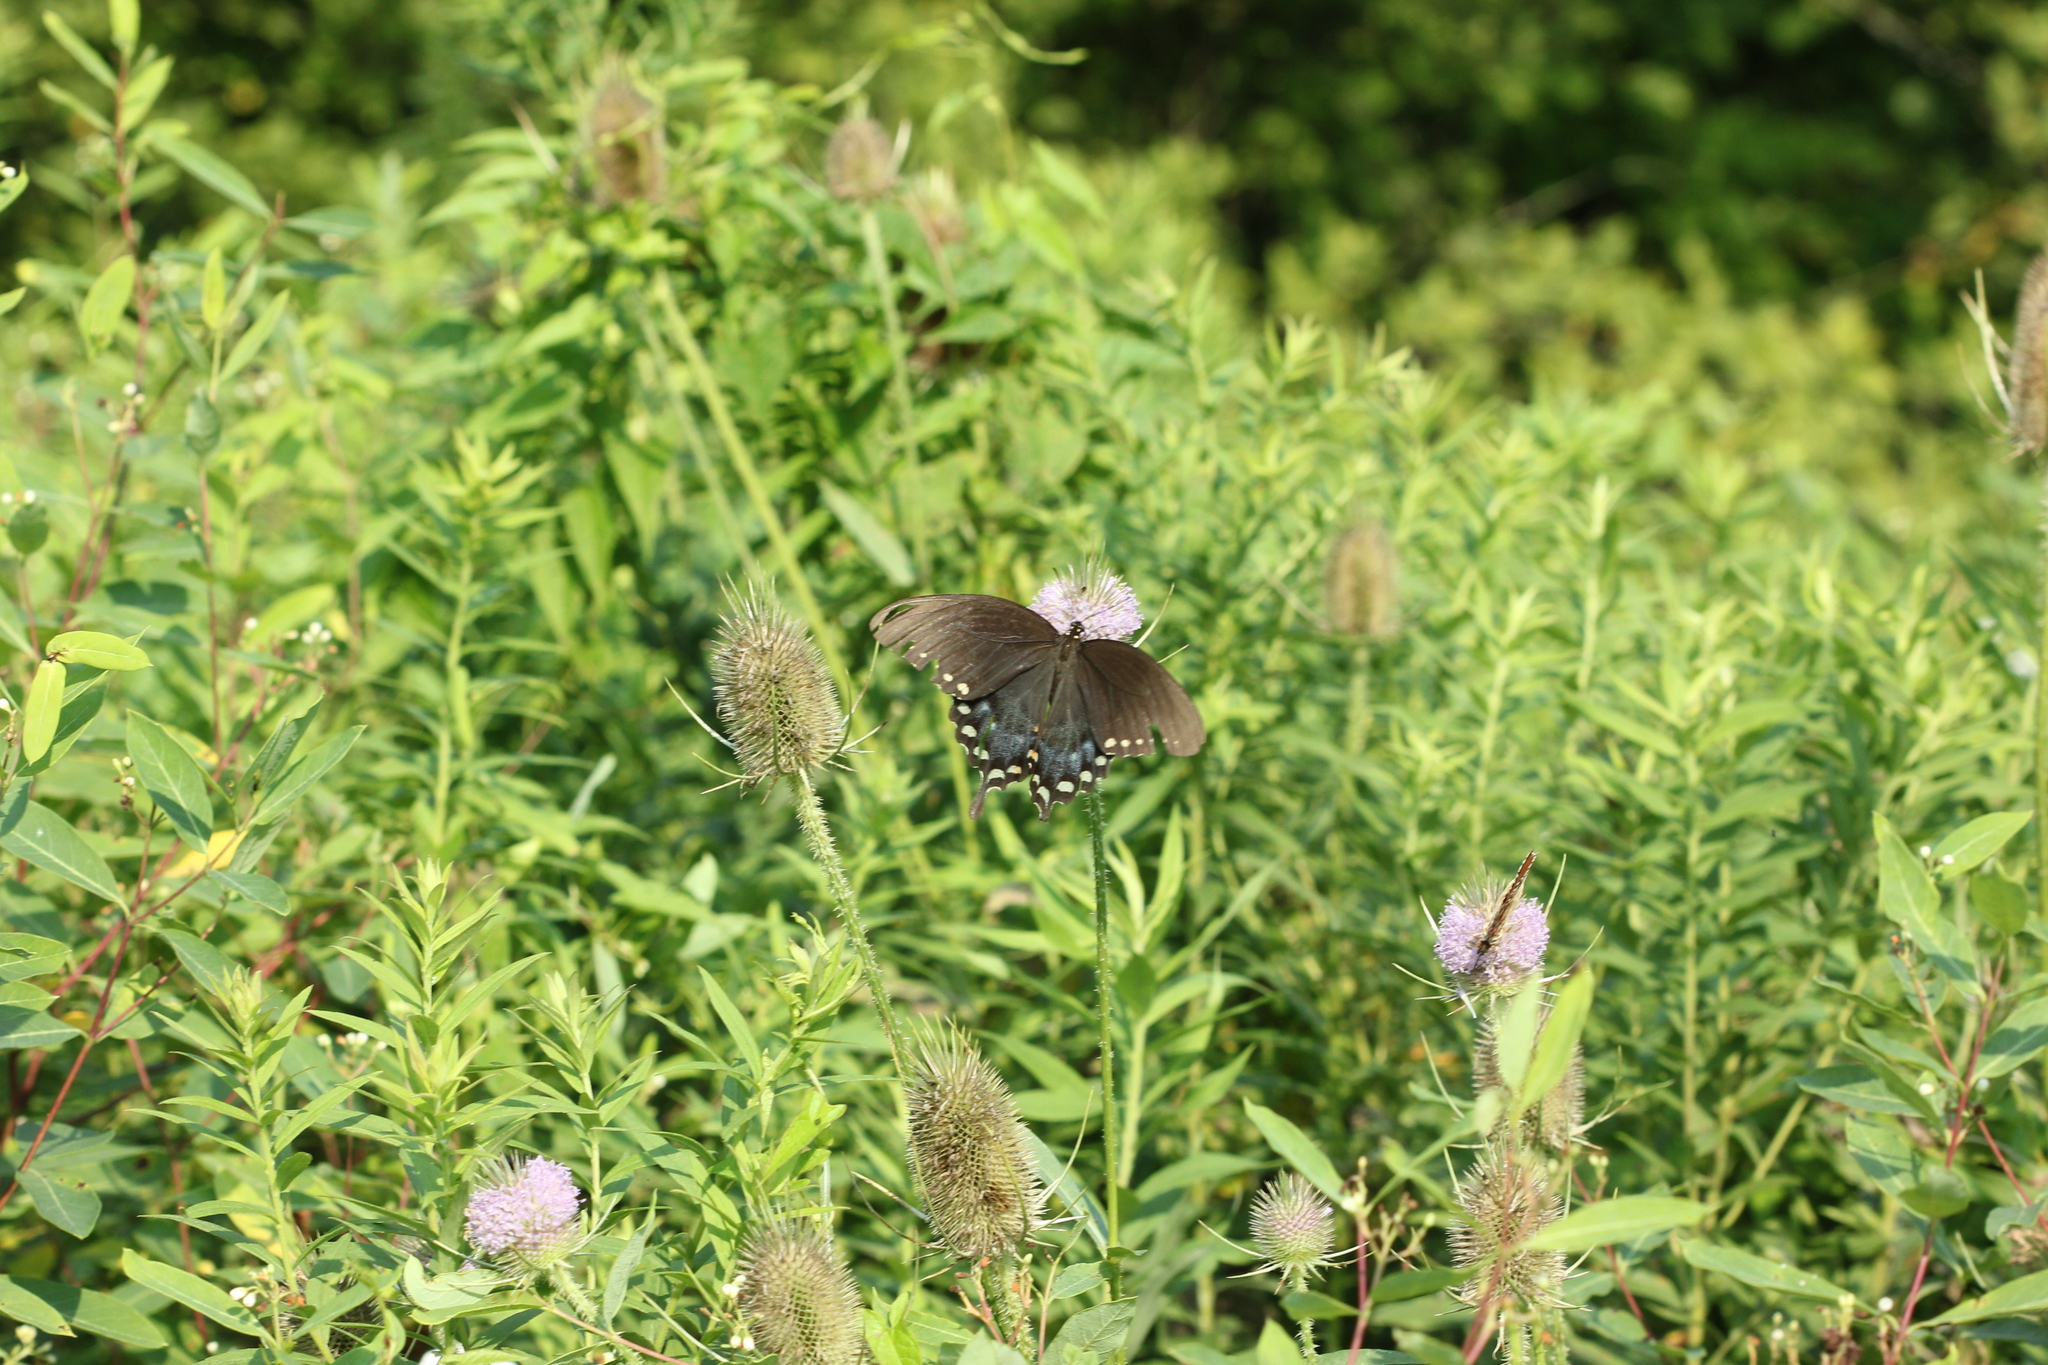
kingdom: Animalia
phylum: Arthropoda
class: Insecta
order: Lepidoptera
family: Papilionidae
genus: Papilio
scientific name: Papilio troilus
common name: Spicebush swallowtail
